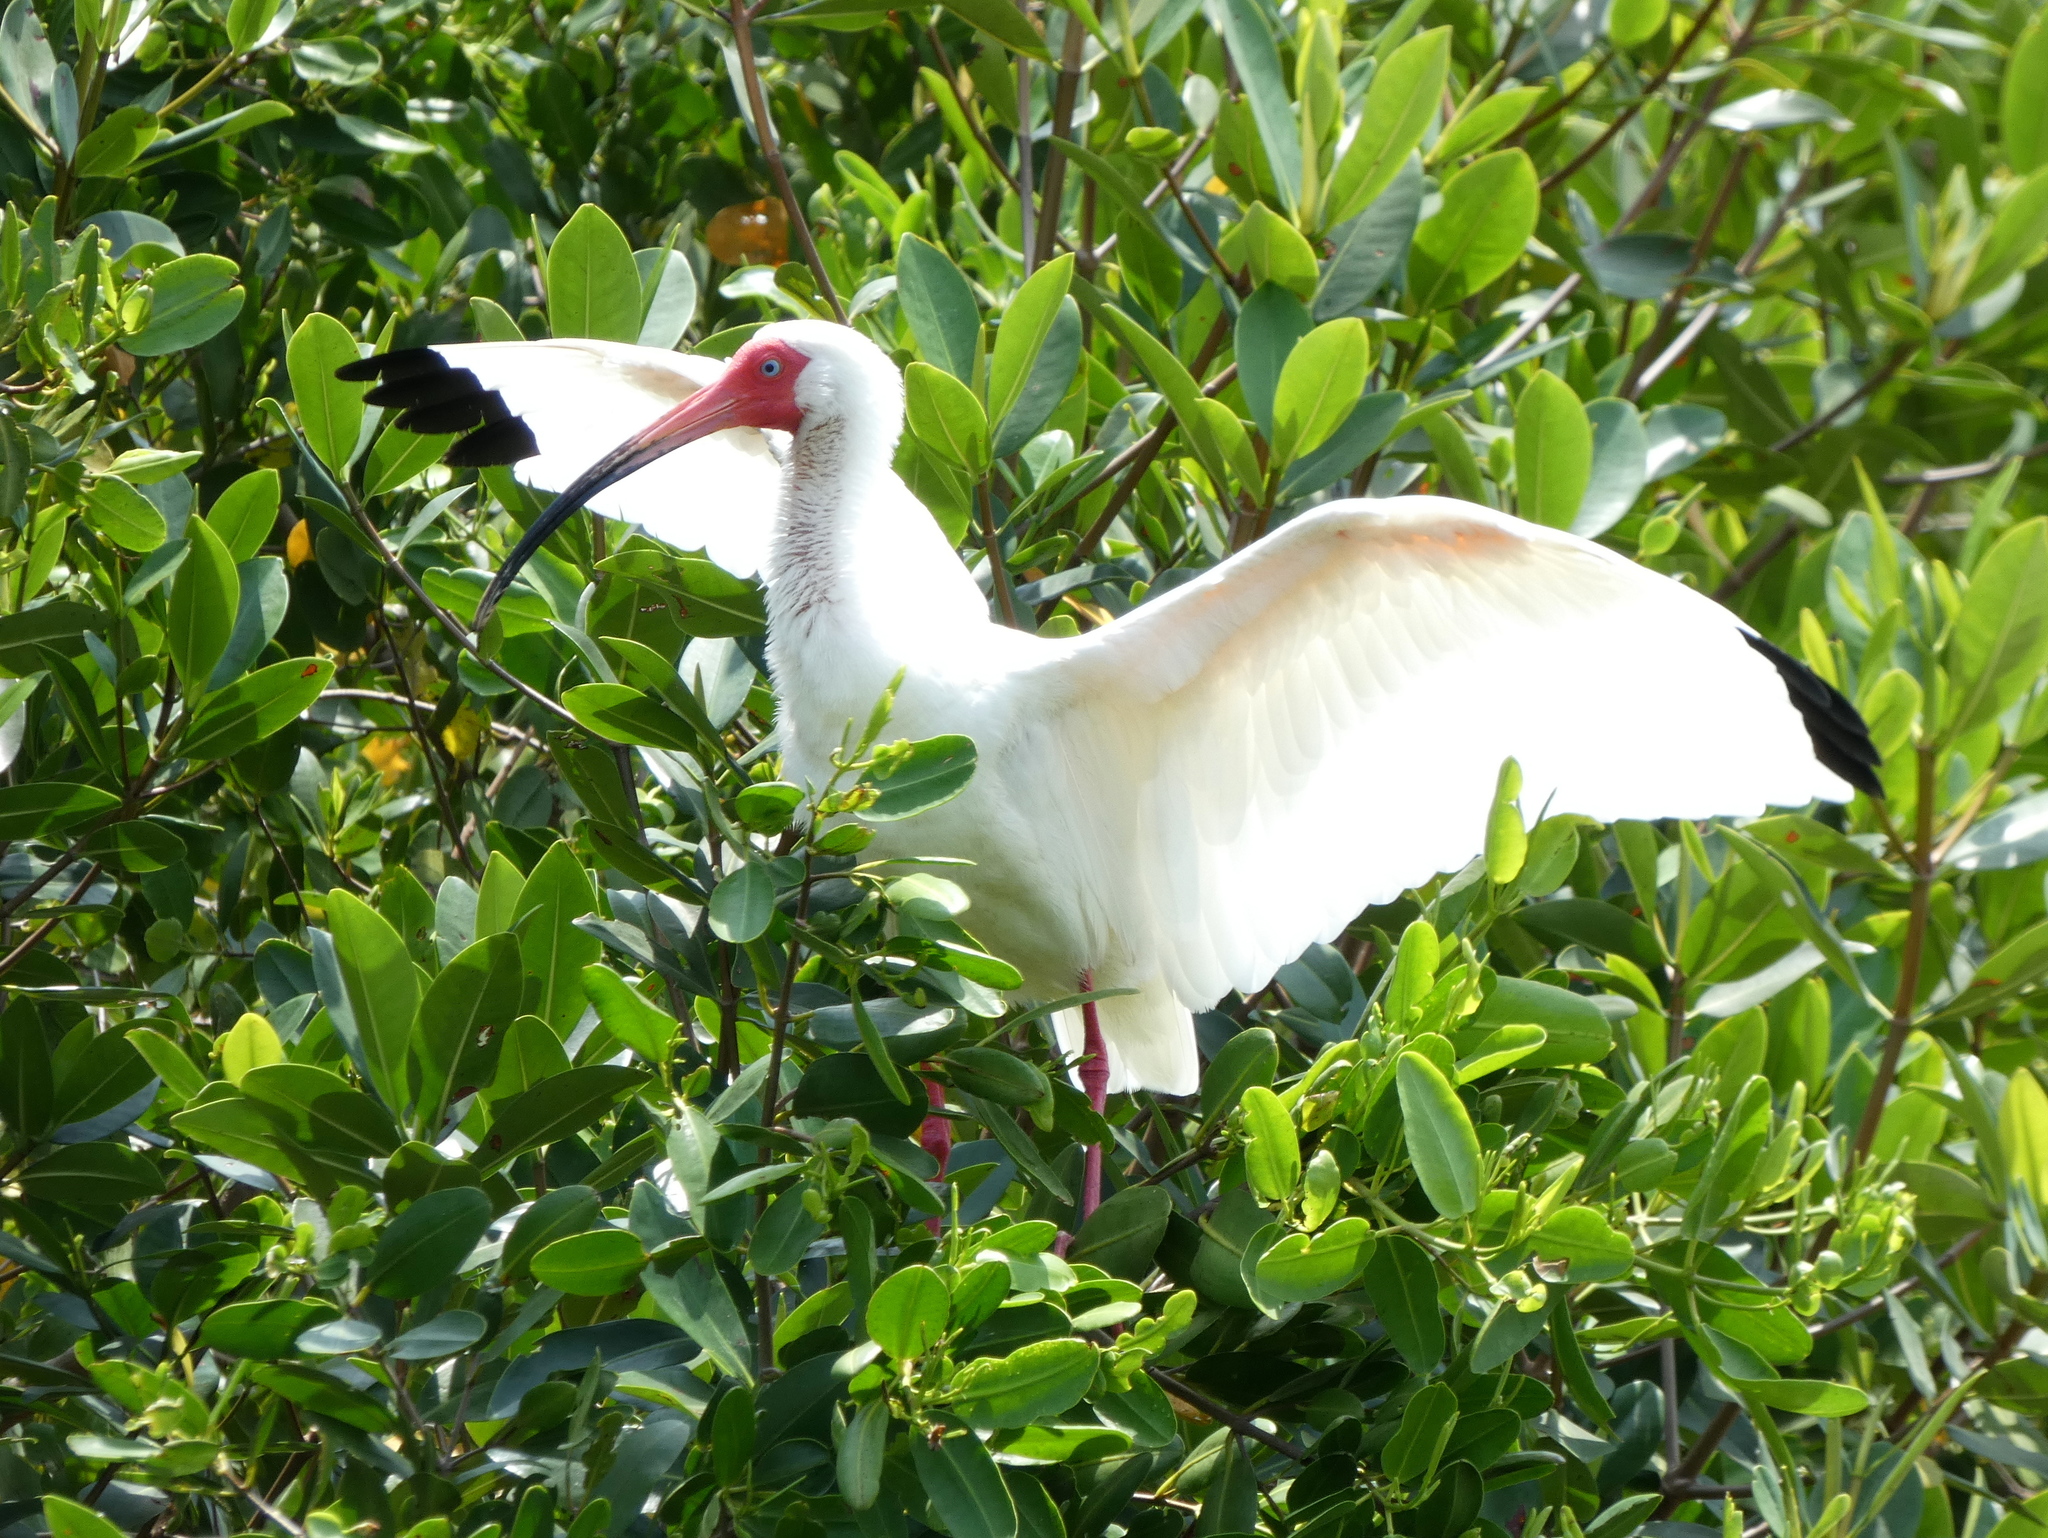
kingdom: Animalia
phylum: Chordata
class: Aves
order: Pelecaniformes
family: Threskiornithidae
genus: Eudocimus
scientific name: Eudocimus albus
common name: White ibis
